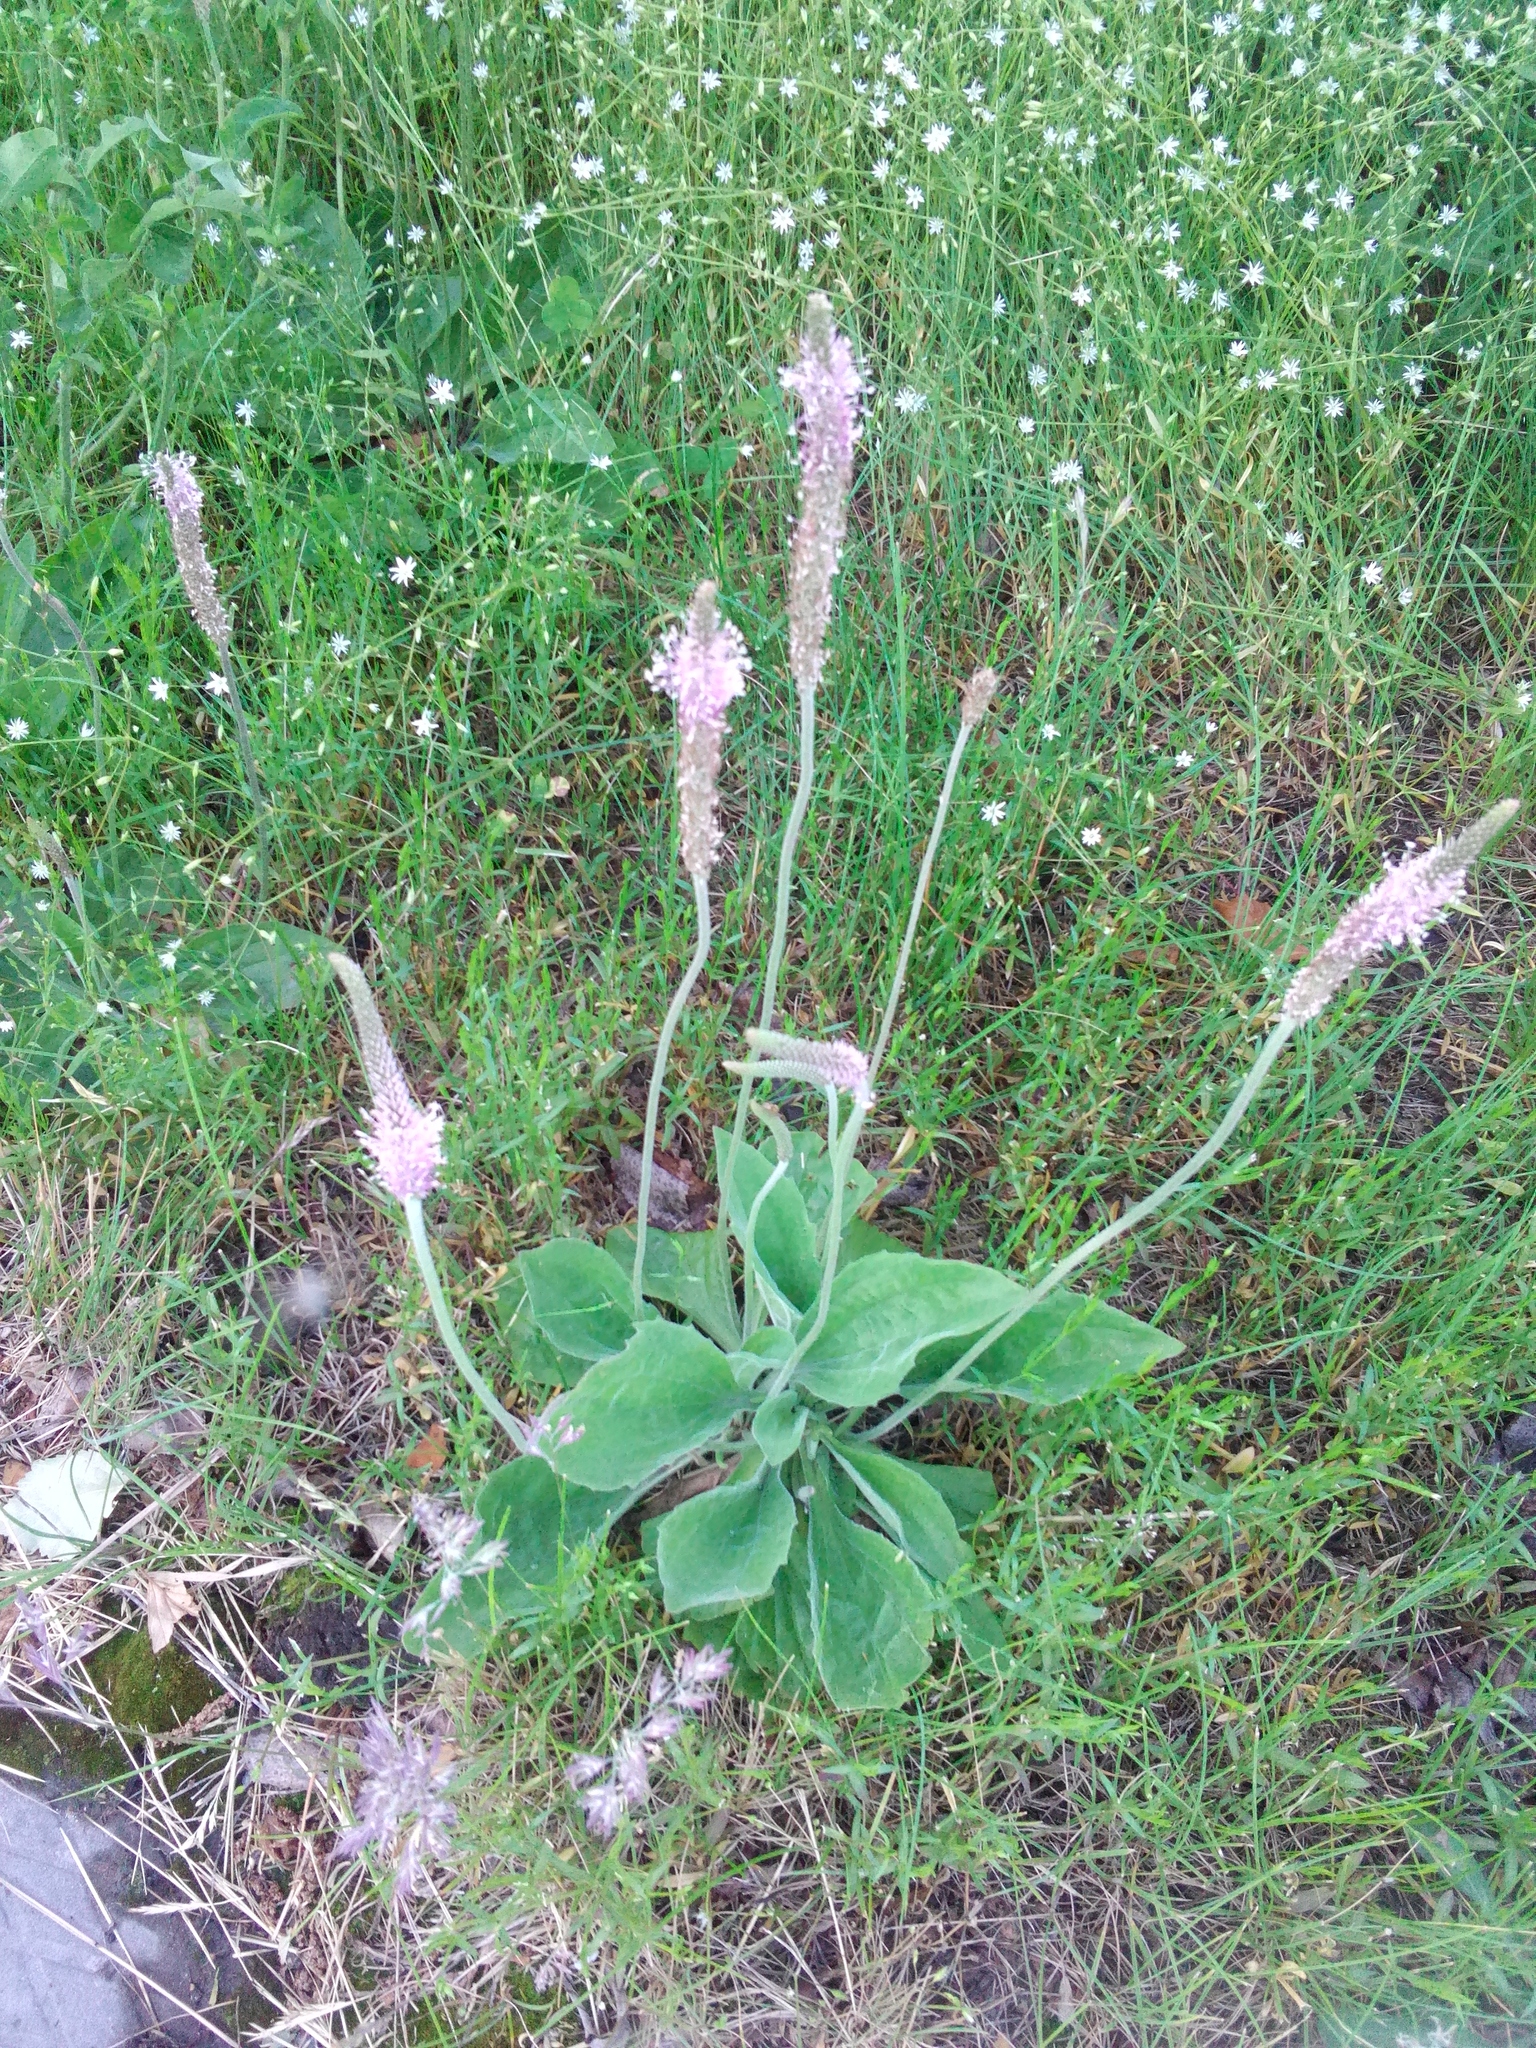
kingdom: Plantae
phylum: Tracheophyta
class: Magnoliopsida
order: Lamiales
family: Plantaginaceae
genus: Plantago
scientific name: Plantago media
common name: Hoary plantain
